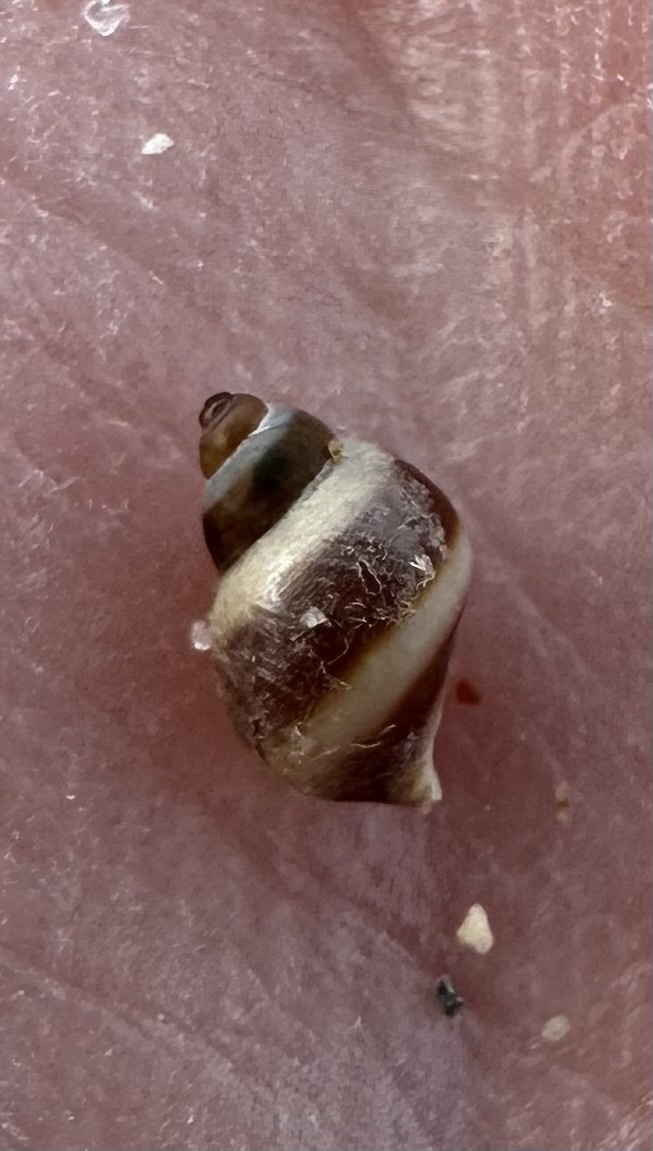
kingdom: Animalia
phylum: Mollusca
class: Gastropoda
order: Littorinimorpha
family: Littorinidae
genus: Lacuna
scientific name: Lacuna vincta
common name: Banded chink shell
